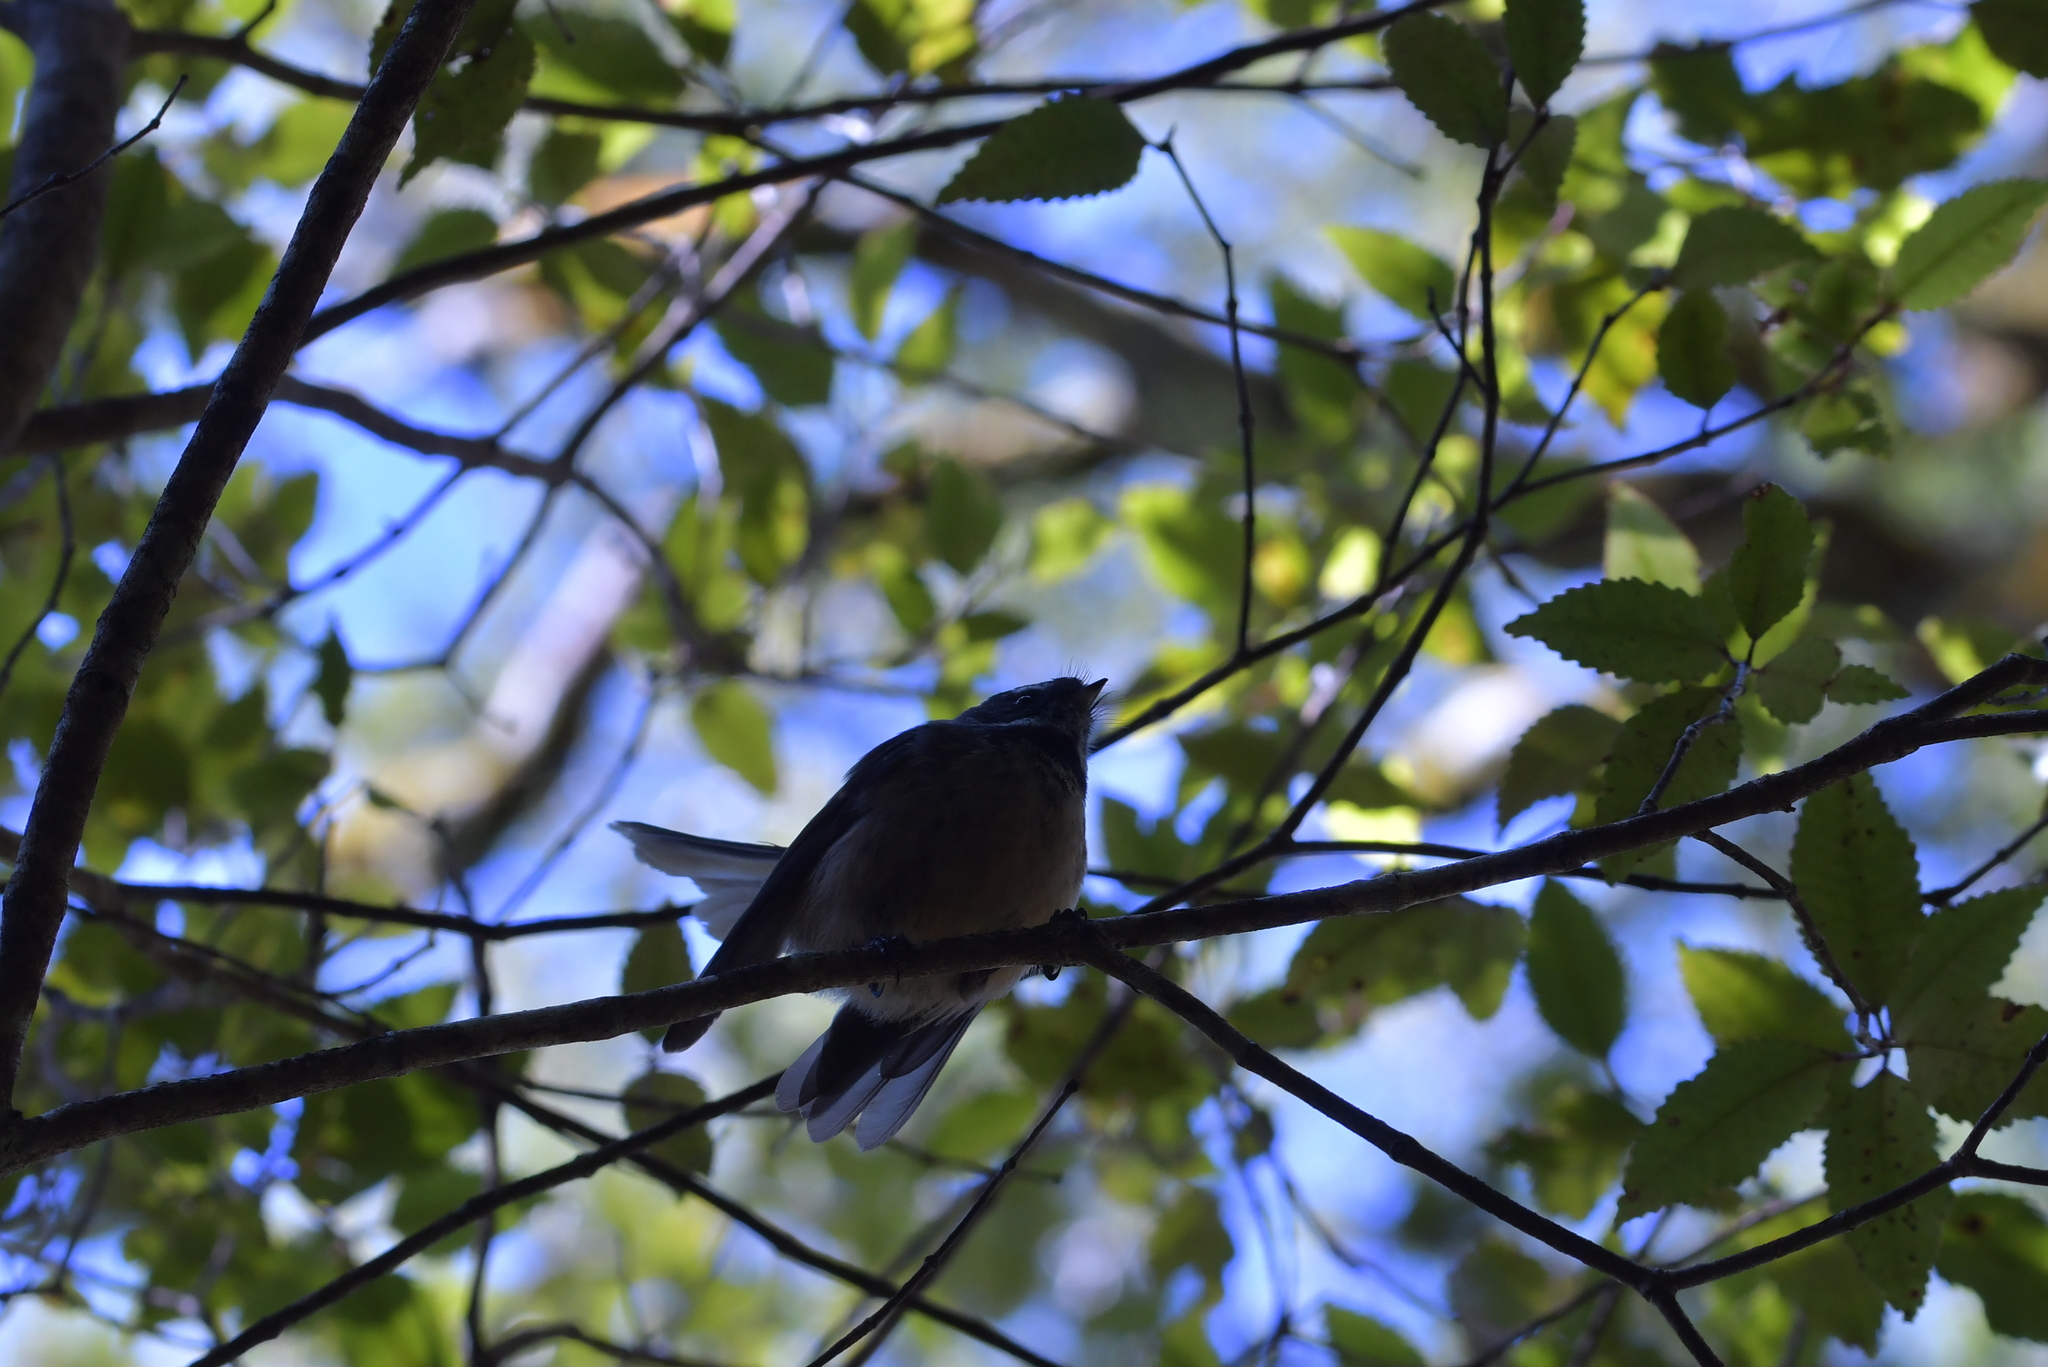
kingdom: Animalia
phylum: Chordata
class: Aves
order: Passeriformes
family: Rhipiduridae
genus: Rhipidura
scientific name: Rhipidura fuliginosa
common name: New zealand fantail
